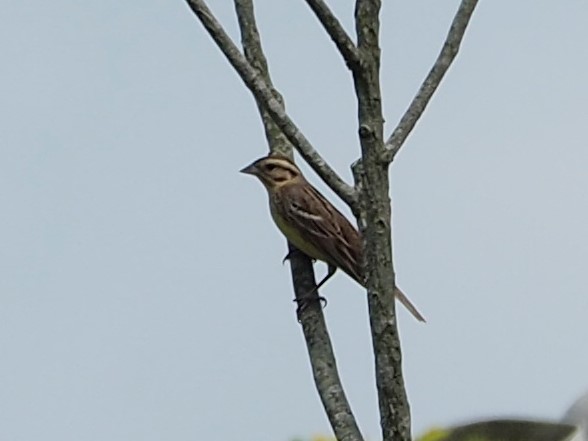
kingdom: Animalia
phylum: Chordata
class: Aves
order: Passeriformes
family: Emberizidae
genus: Emberiza
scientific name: Emberiza aureola
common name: Yellow-breasted bunting
